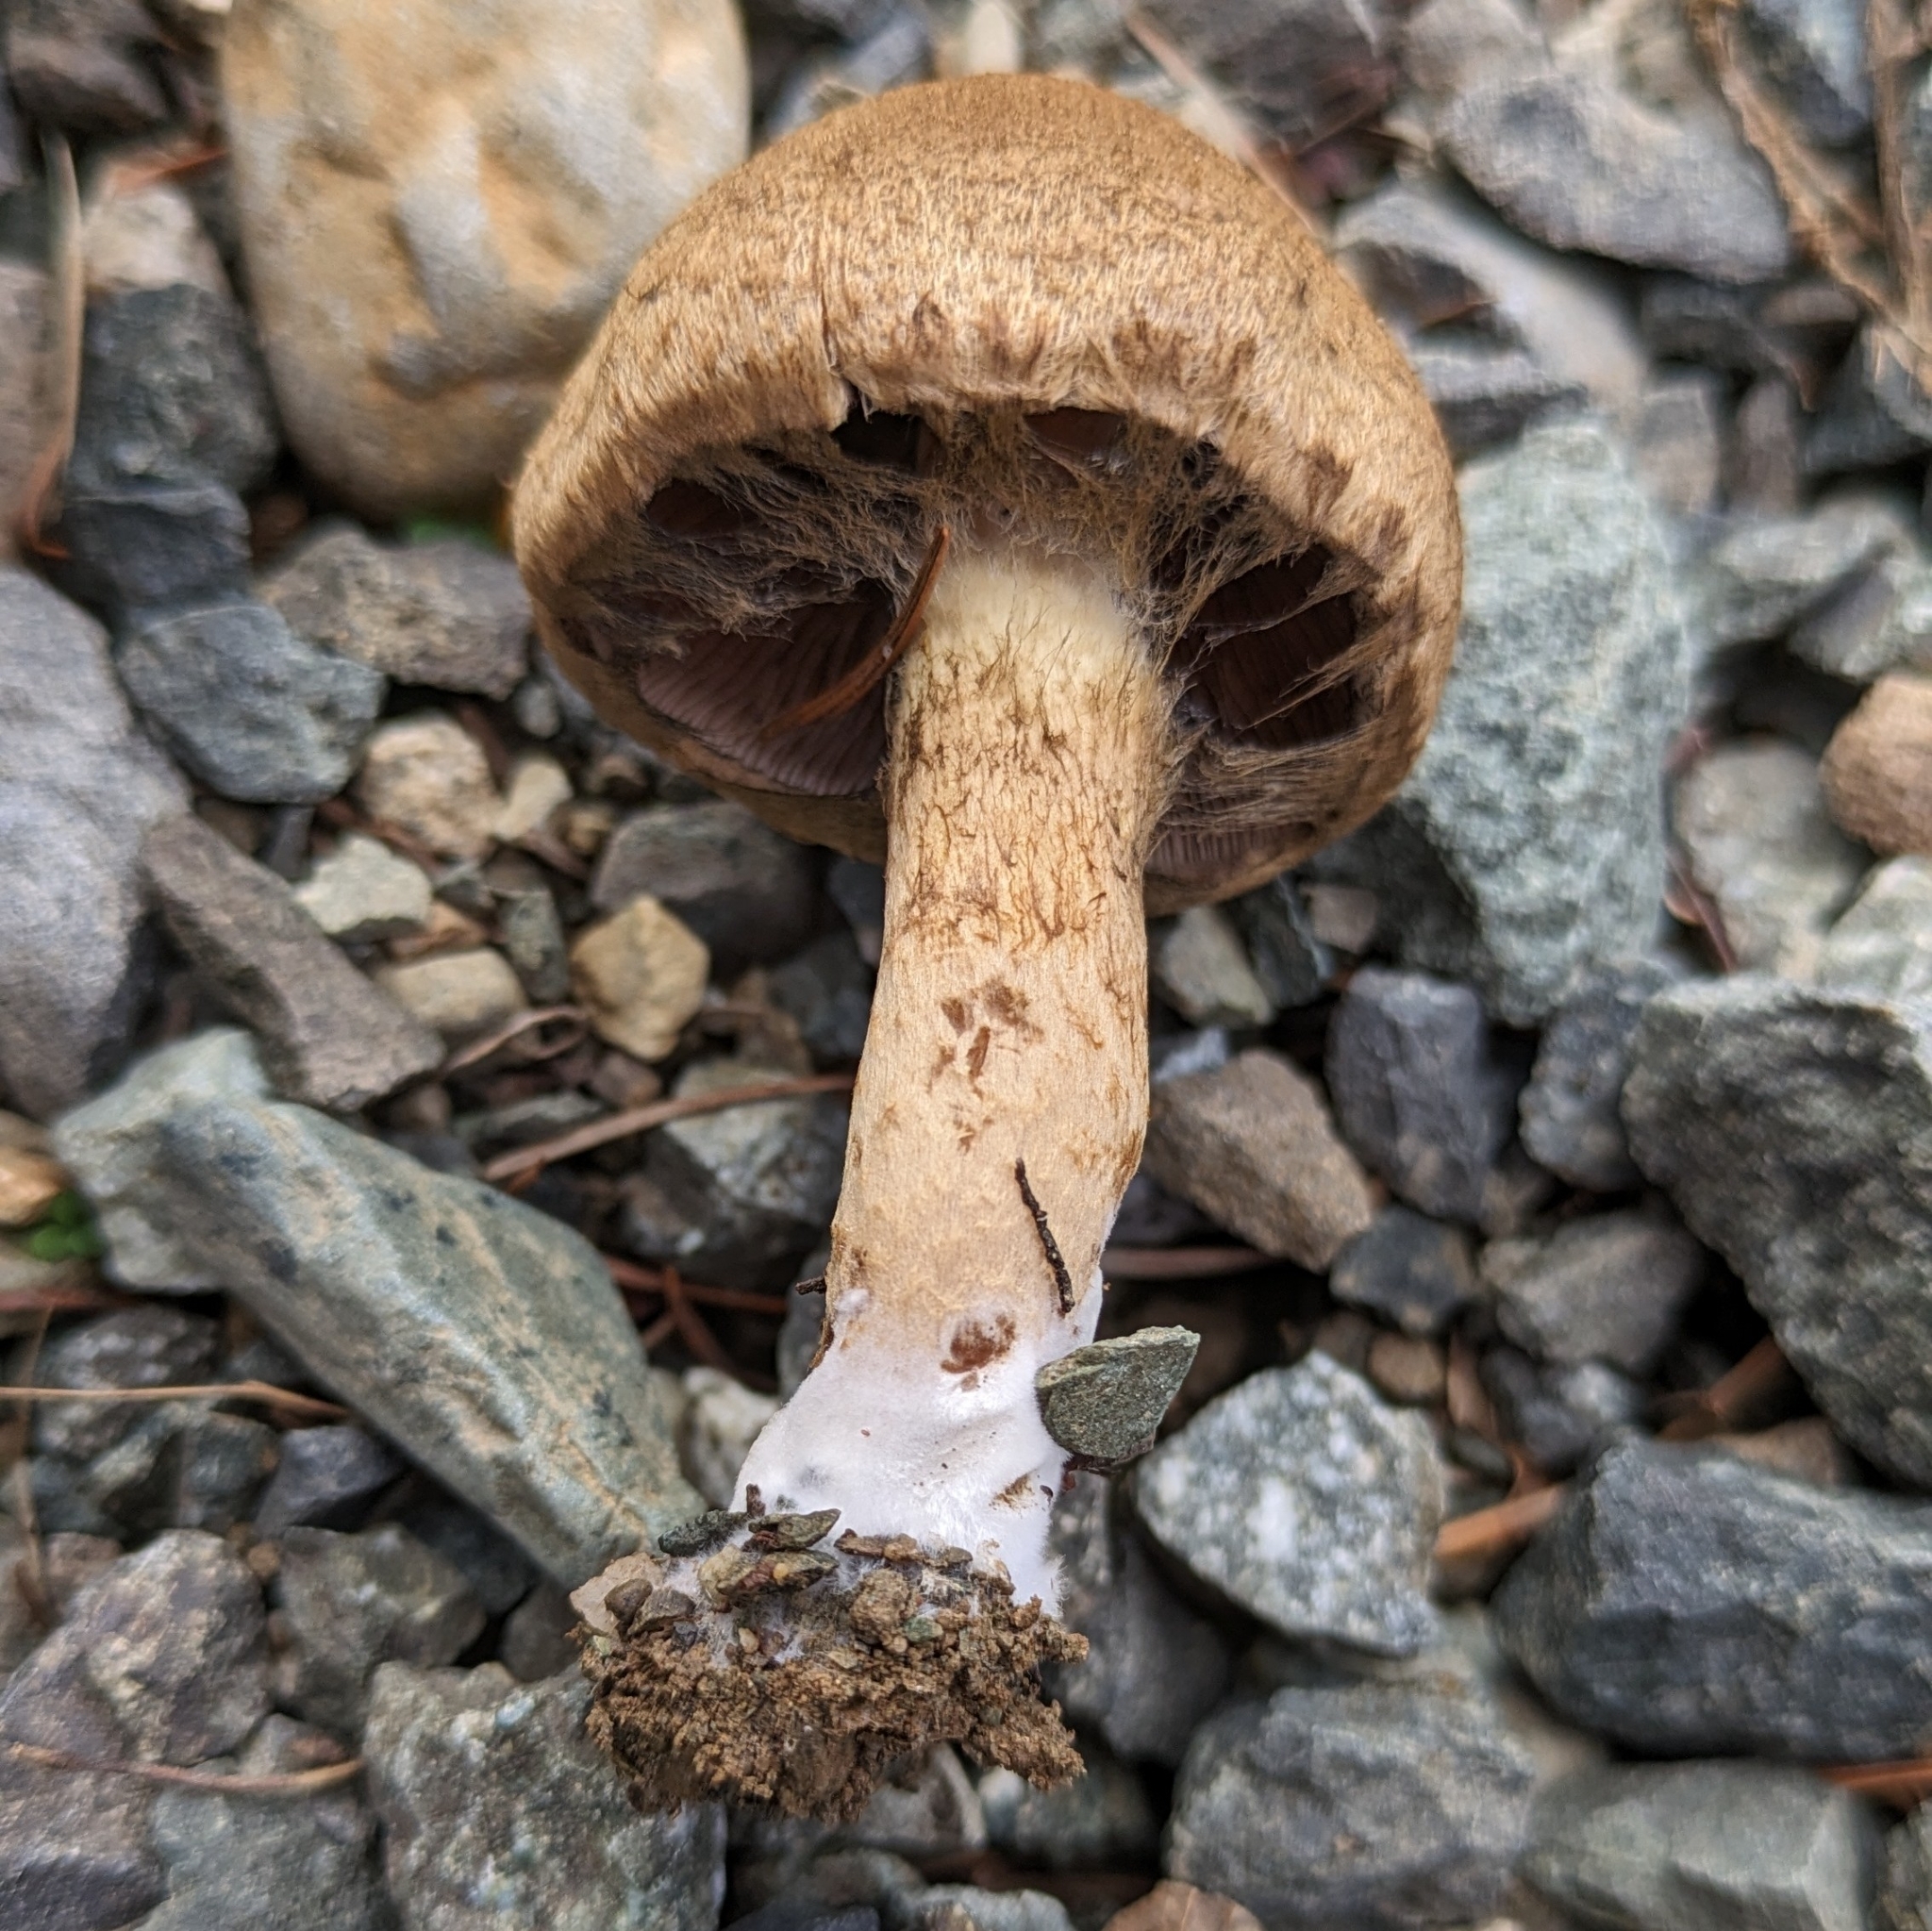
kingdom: Fungi
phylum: Basidiomycota
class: Agaricomycetes
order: Agaricales
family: Psathyrellaceae
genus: Lacrymaria
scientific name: Lacrymaria lacrymabunda
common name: Weeping widow
